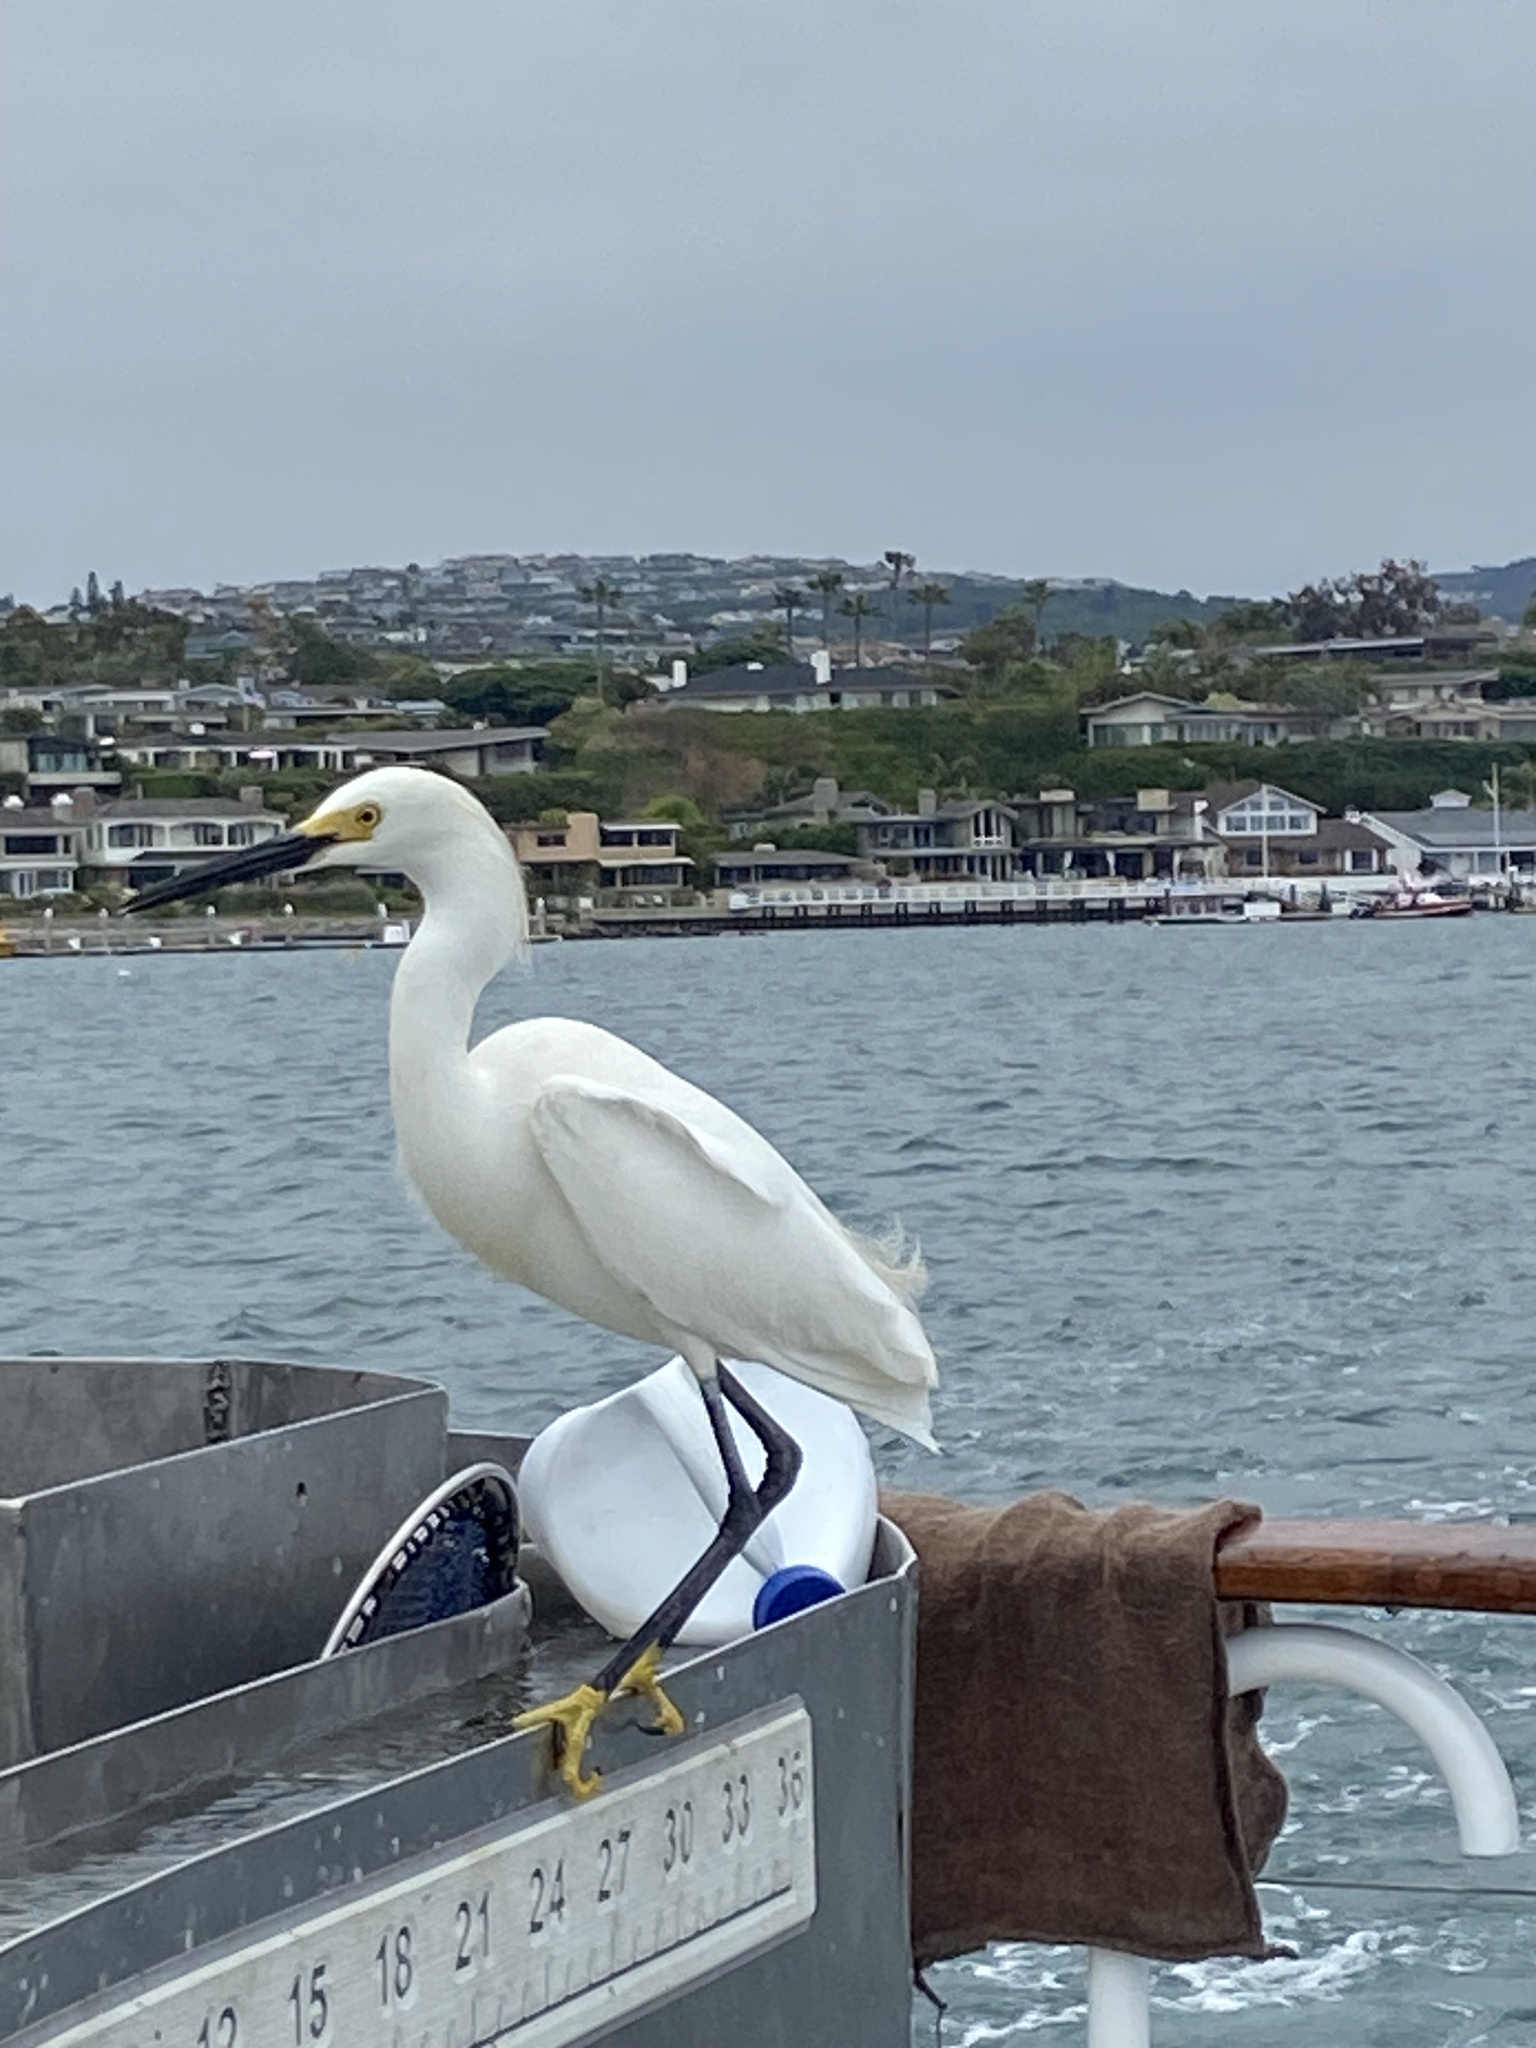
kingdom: Animalia
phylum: Chordata
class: Aves
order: Pelecaniformes
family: Ardeidae
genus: Egretta
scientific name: Egretta thula
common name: Snowy egret
